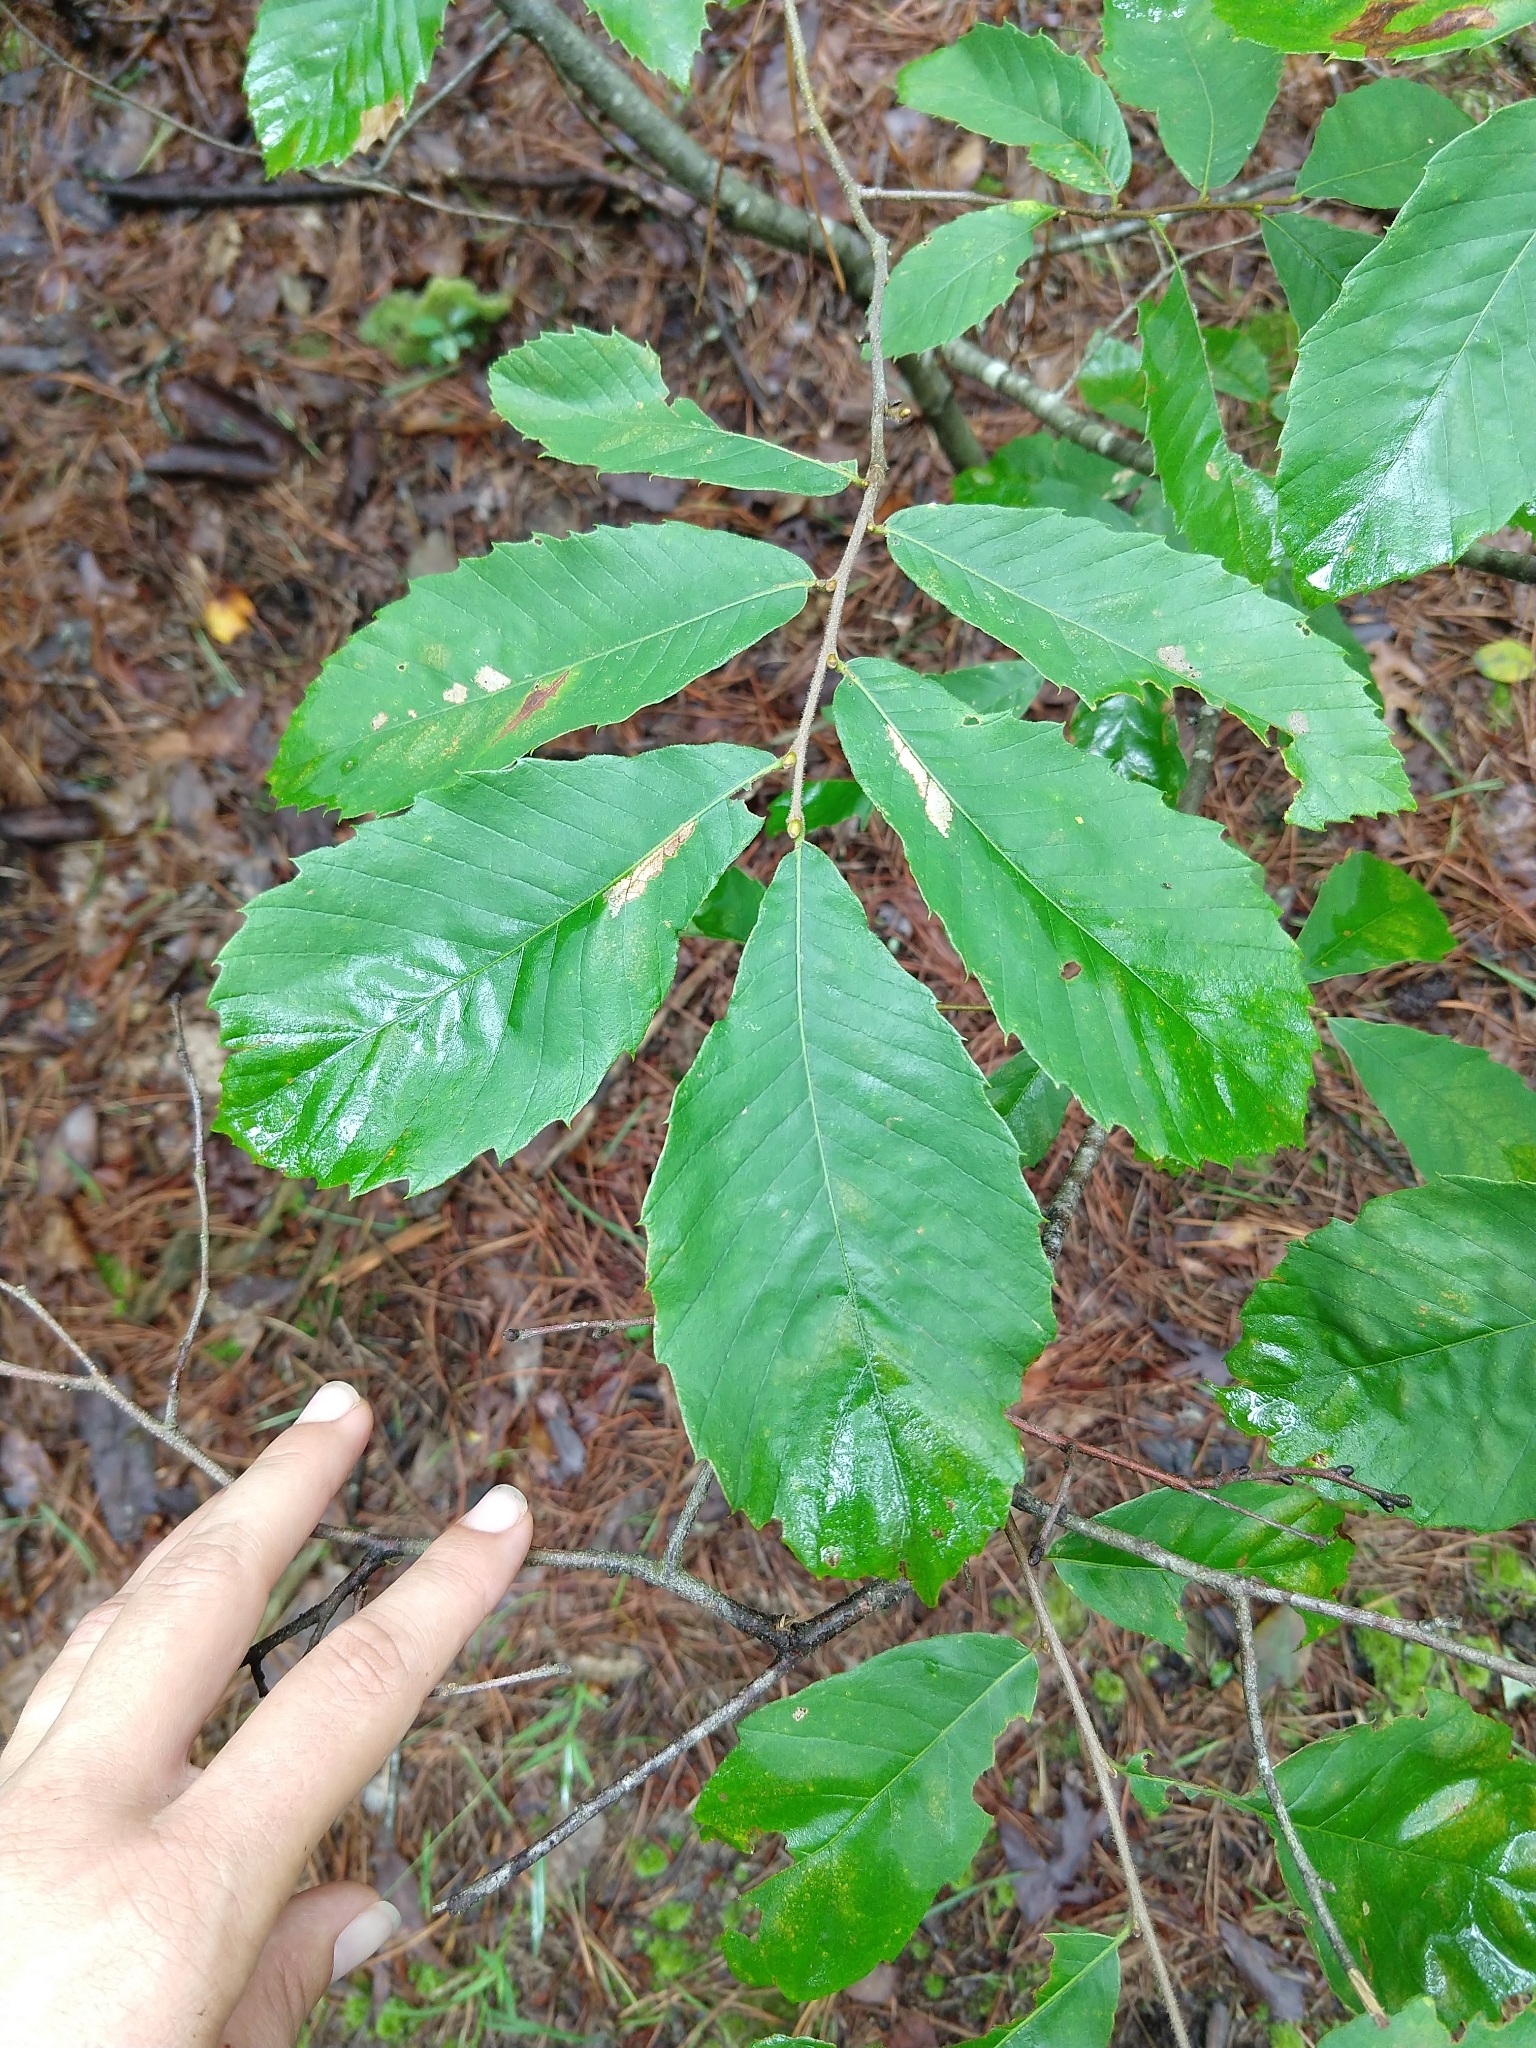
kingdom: Plantae
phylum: Tracheophyta
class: Magnoliopsida
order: Fagales
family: Fagaceae
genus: Castanea
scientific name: Castanea pumila
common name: Chinkapin
